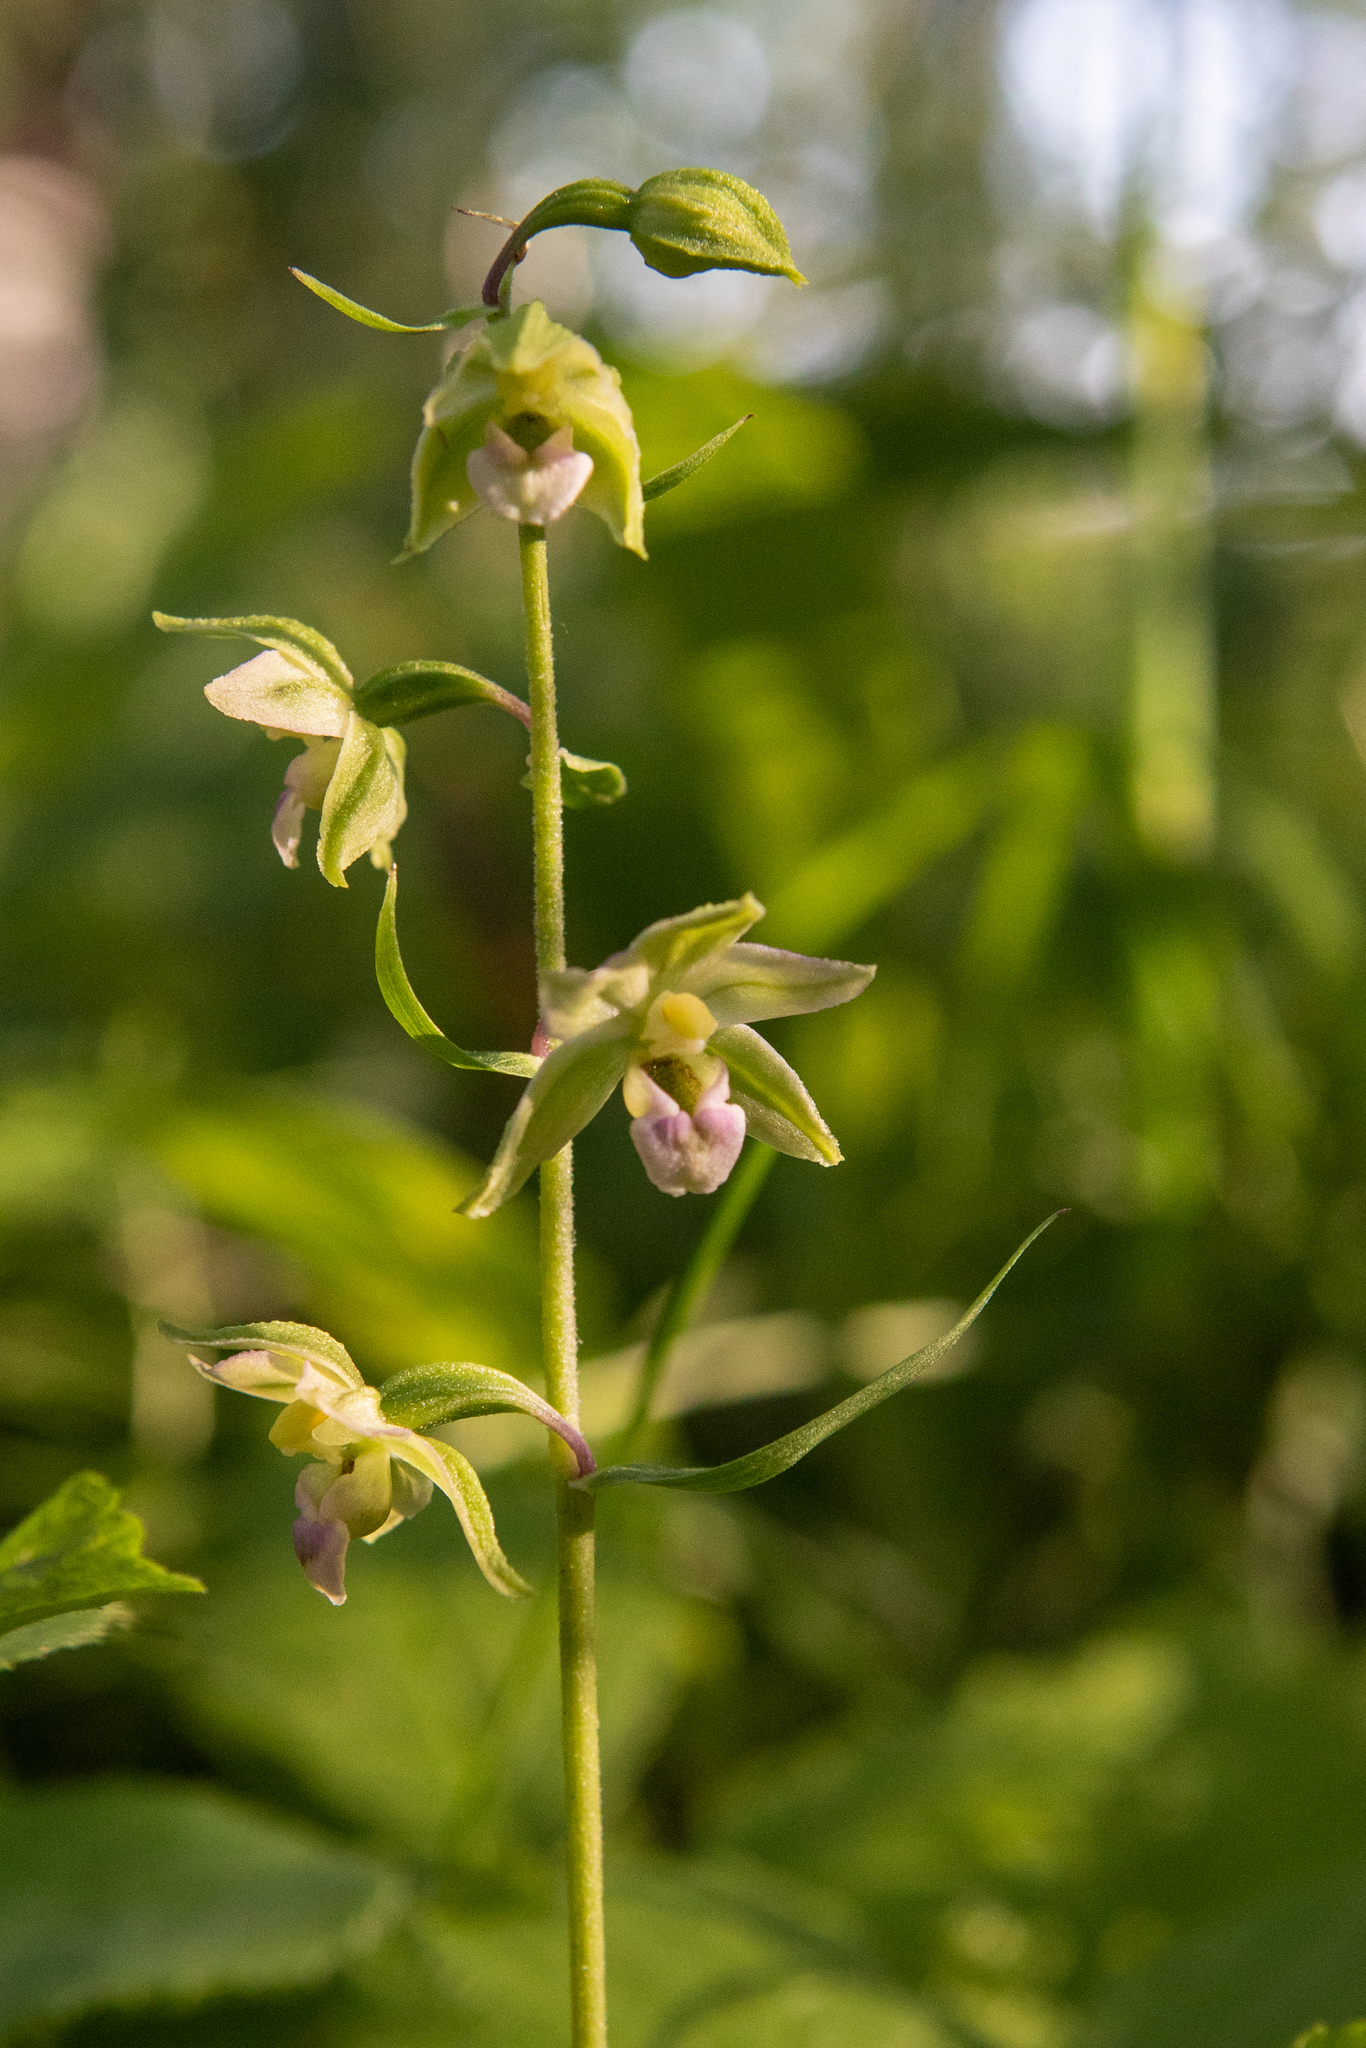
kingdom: Plantae
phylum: Tracheophyta
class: Liliopsida
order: Asparagales
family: Orchidaceae
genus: Epipactis
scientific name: Epipactis helleborine
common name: Broad-leaved helleborine
